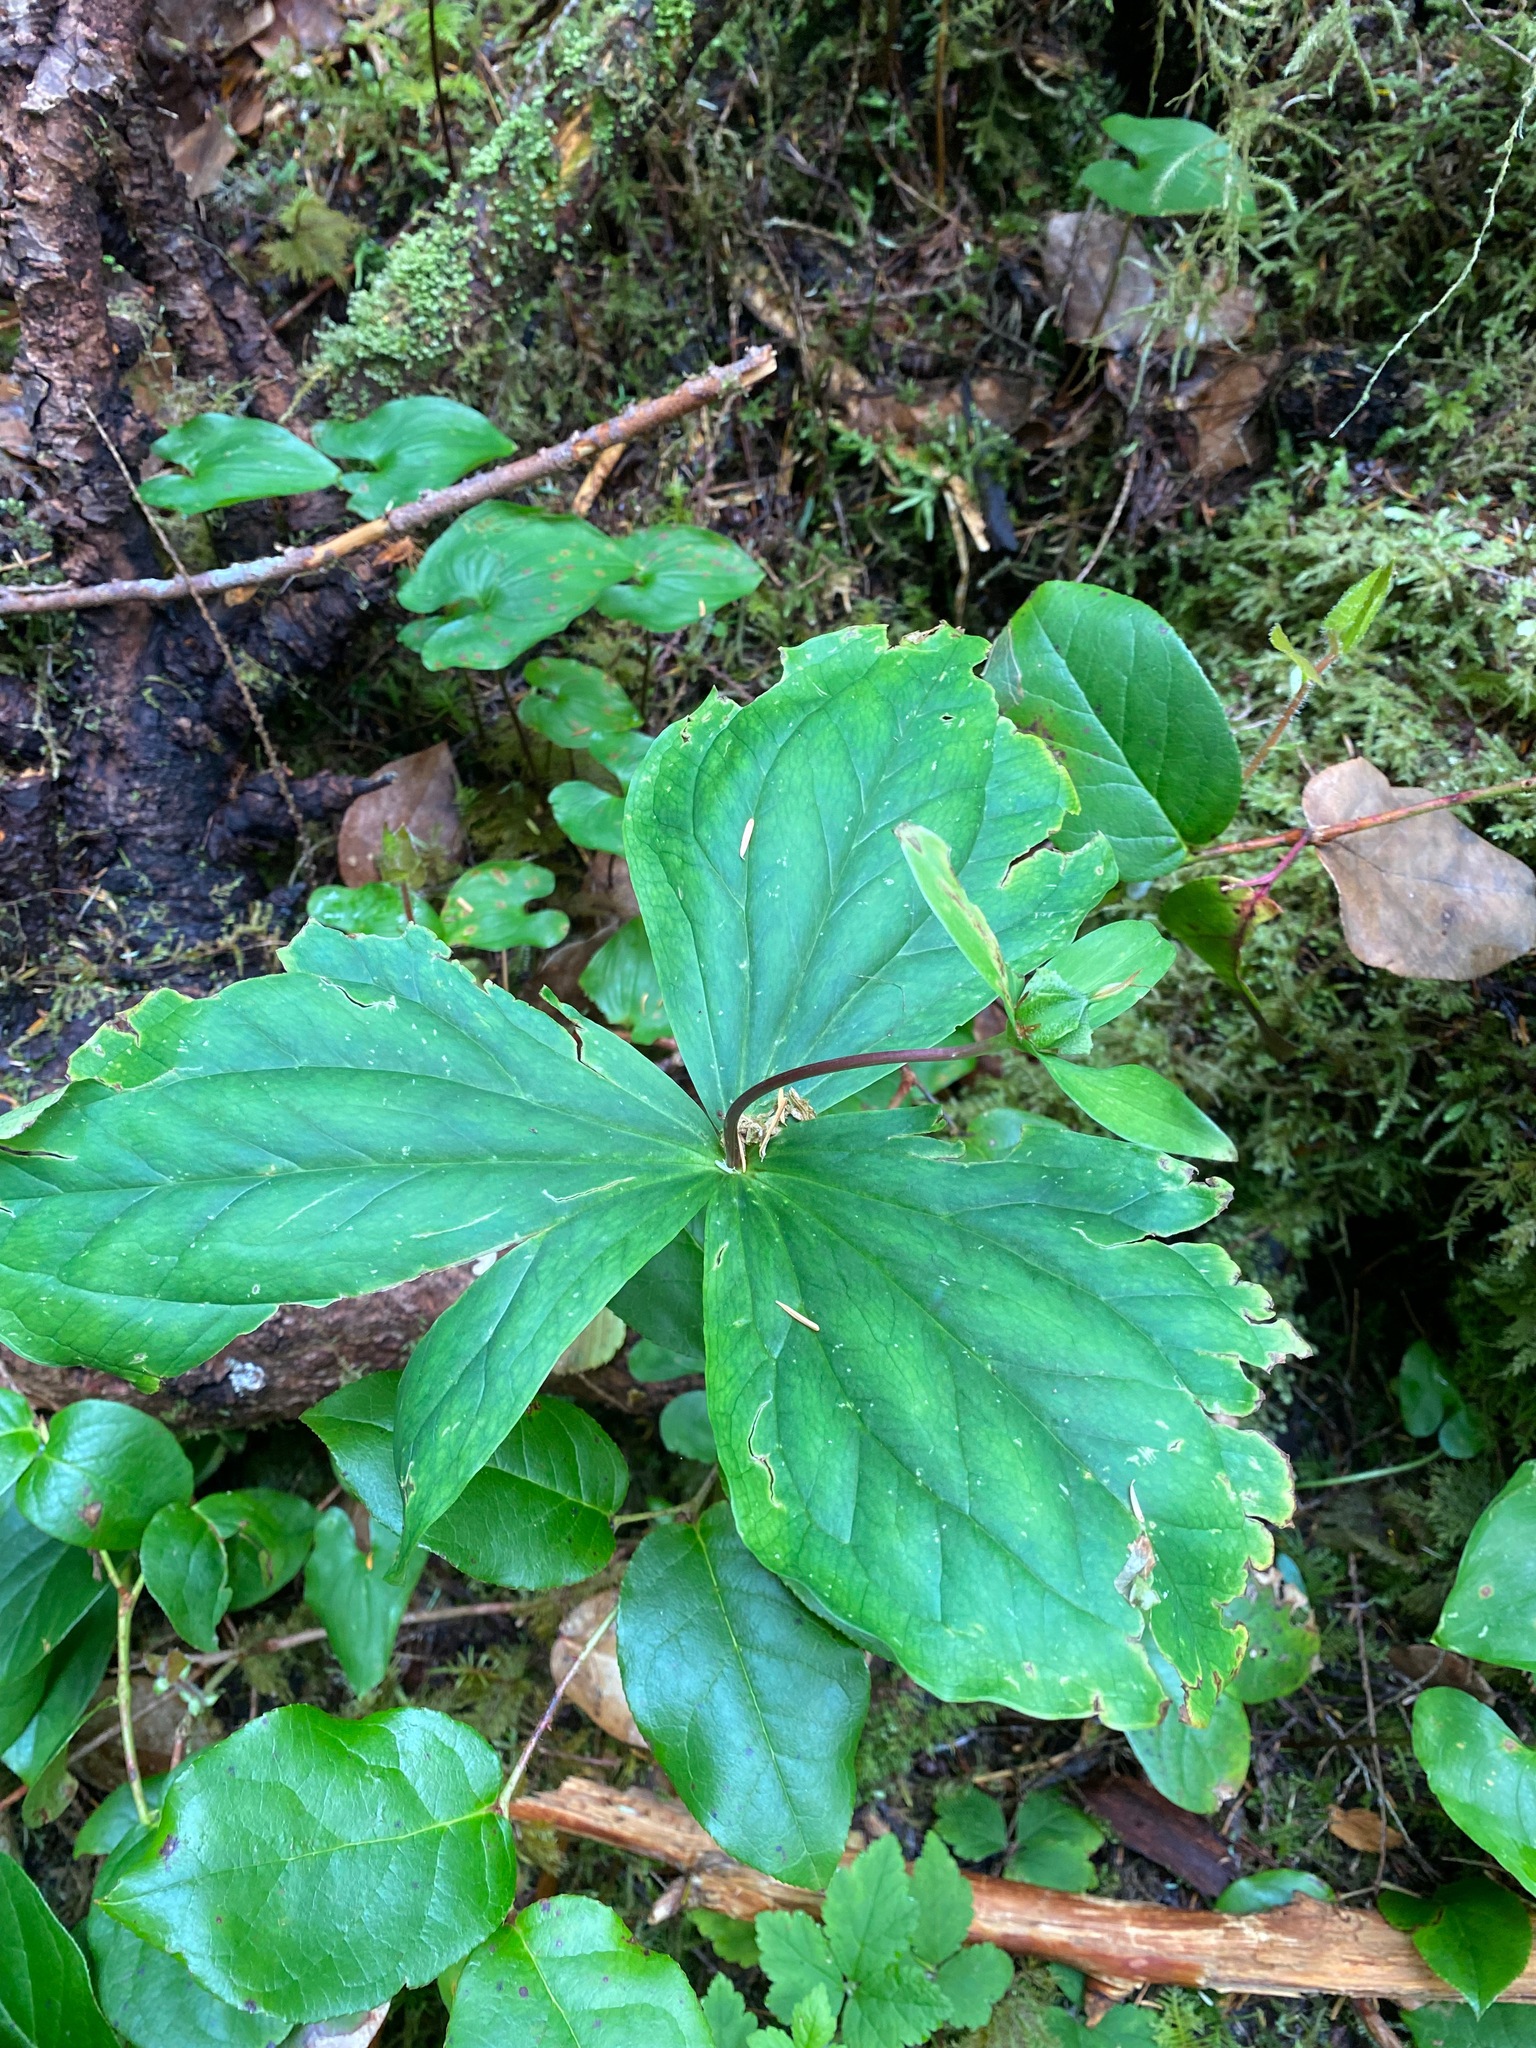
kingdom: Plantae
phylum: Tracheophyta
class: Liliopsida
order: Liliales
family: Melanthiaceae
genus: Trillium
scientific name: Trillium ovatum
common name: Pacific trillium
